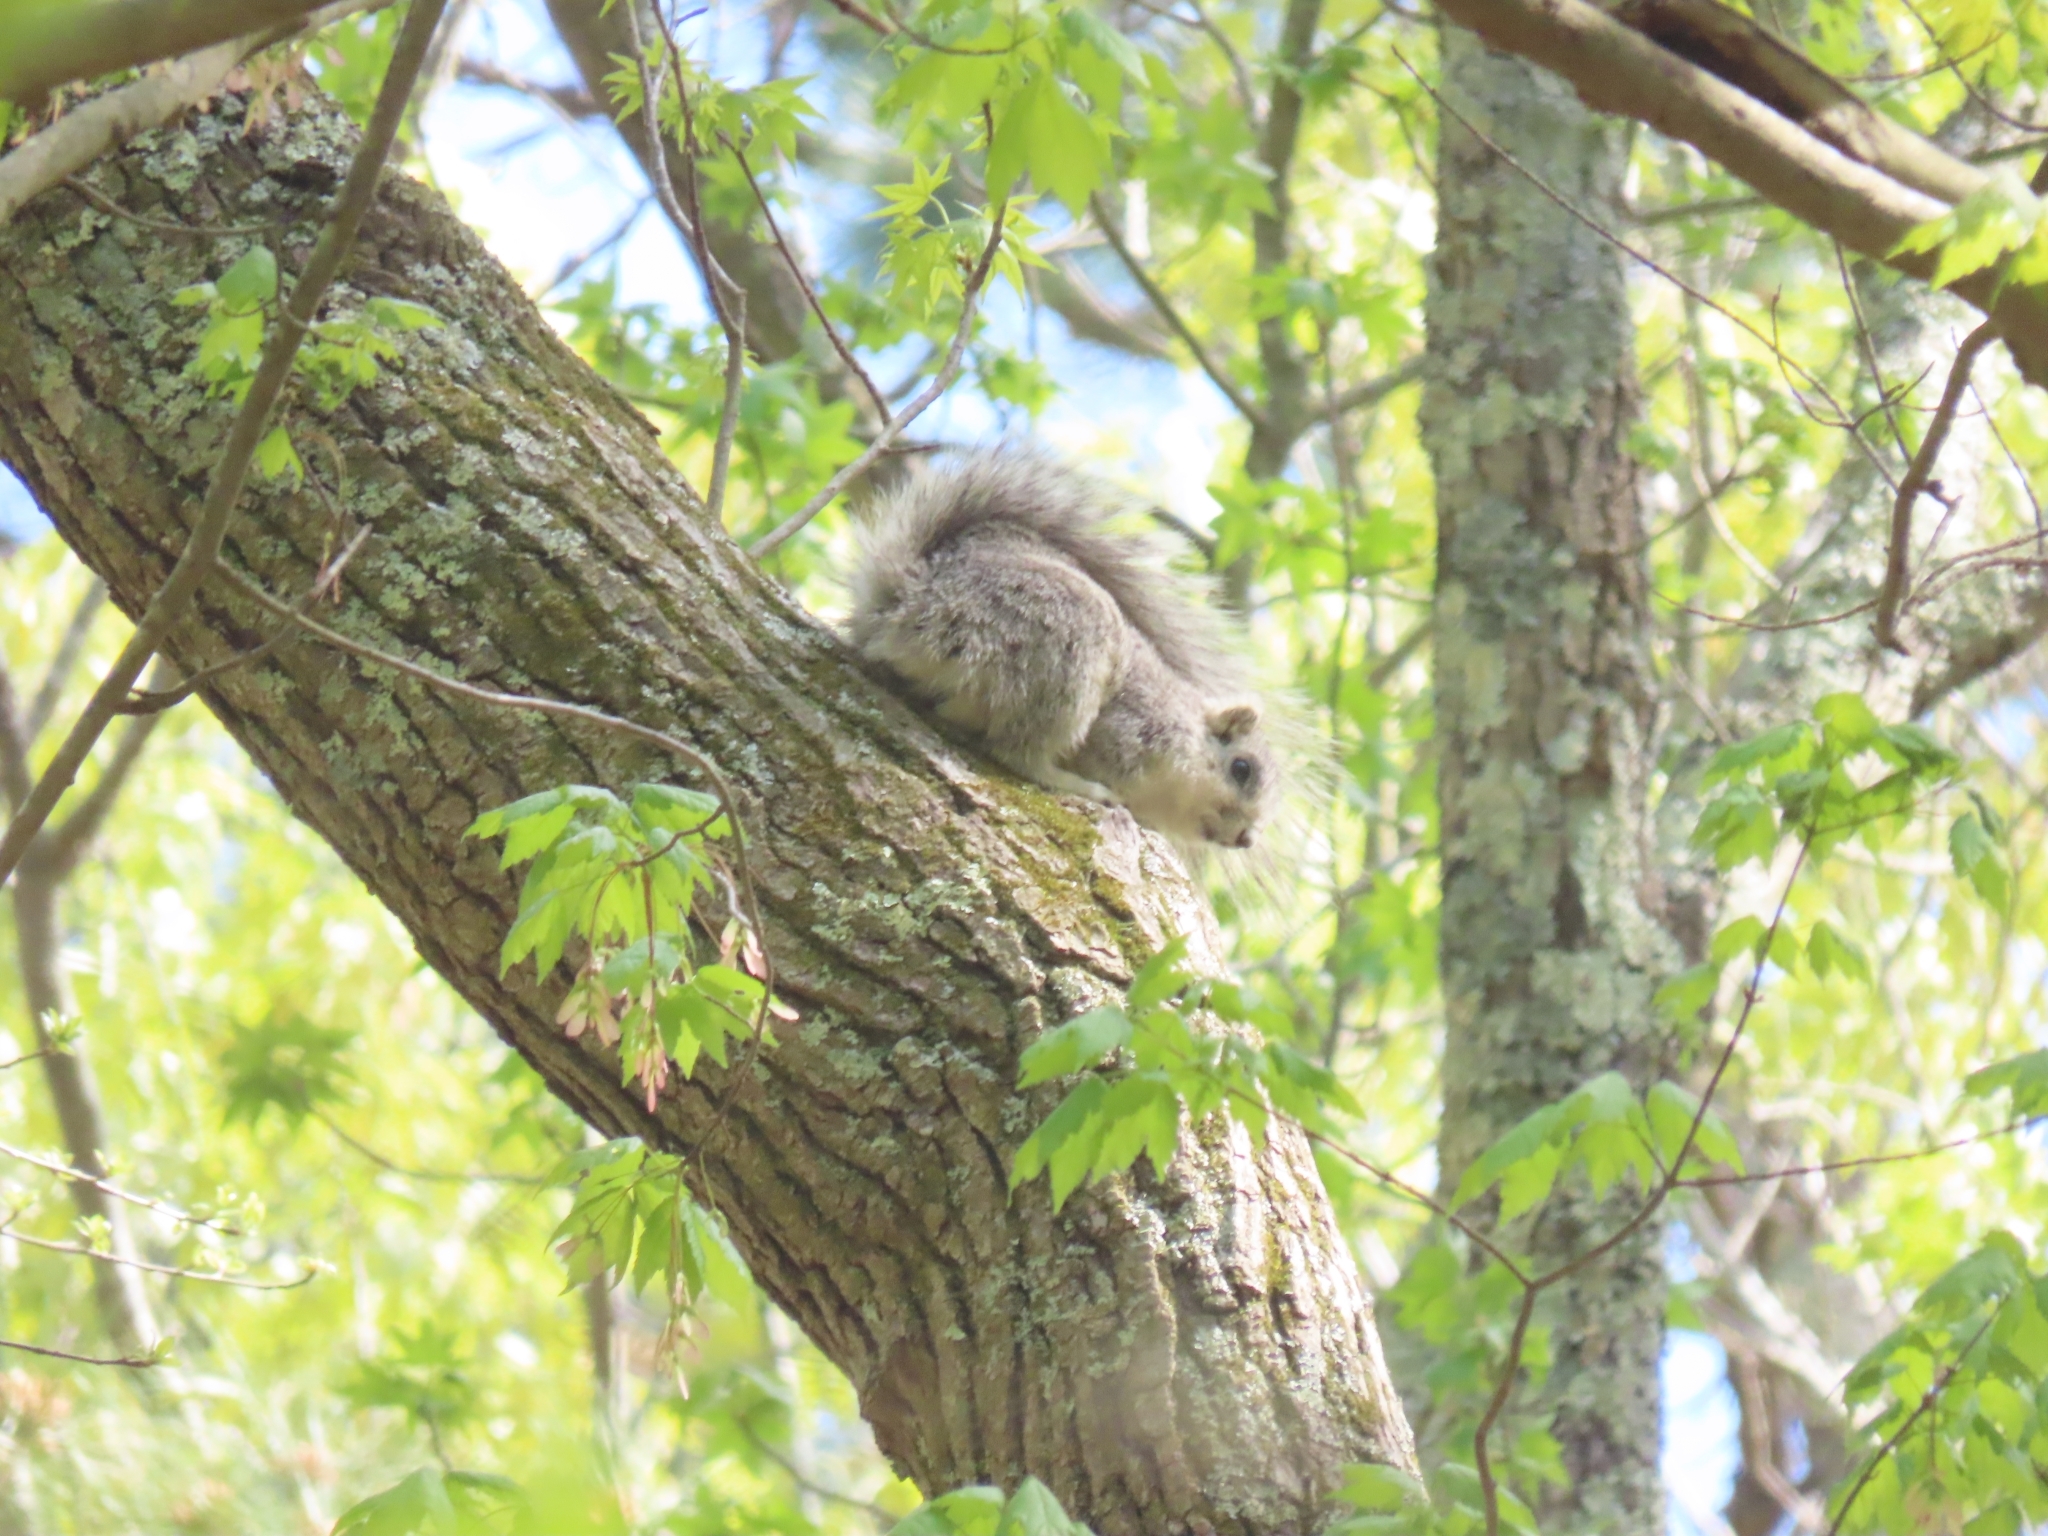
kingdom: Animalia
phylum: Chordata
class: Mammalia
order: Rodentia
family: Sciuridae
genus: Sciurus
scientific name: Sciurus niger
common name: Fox squirrel
